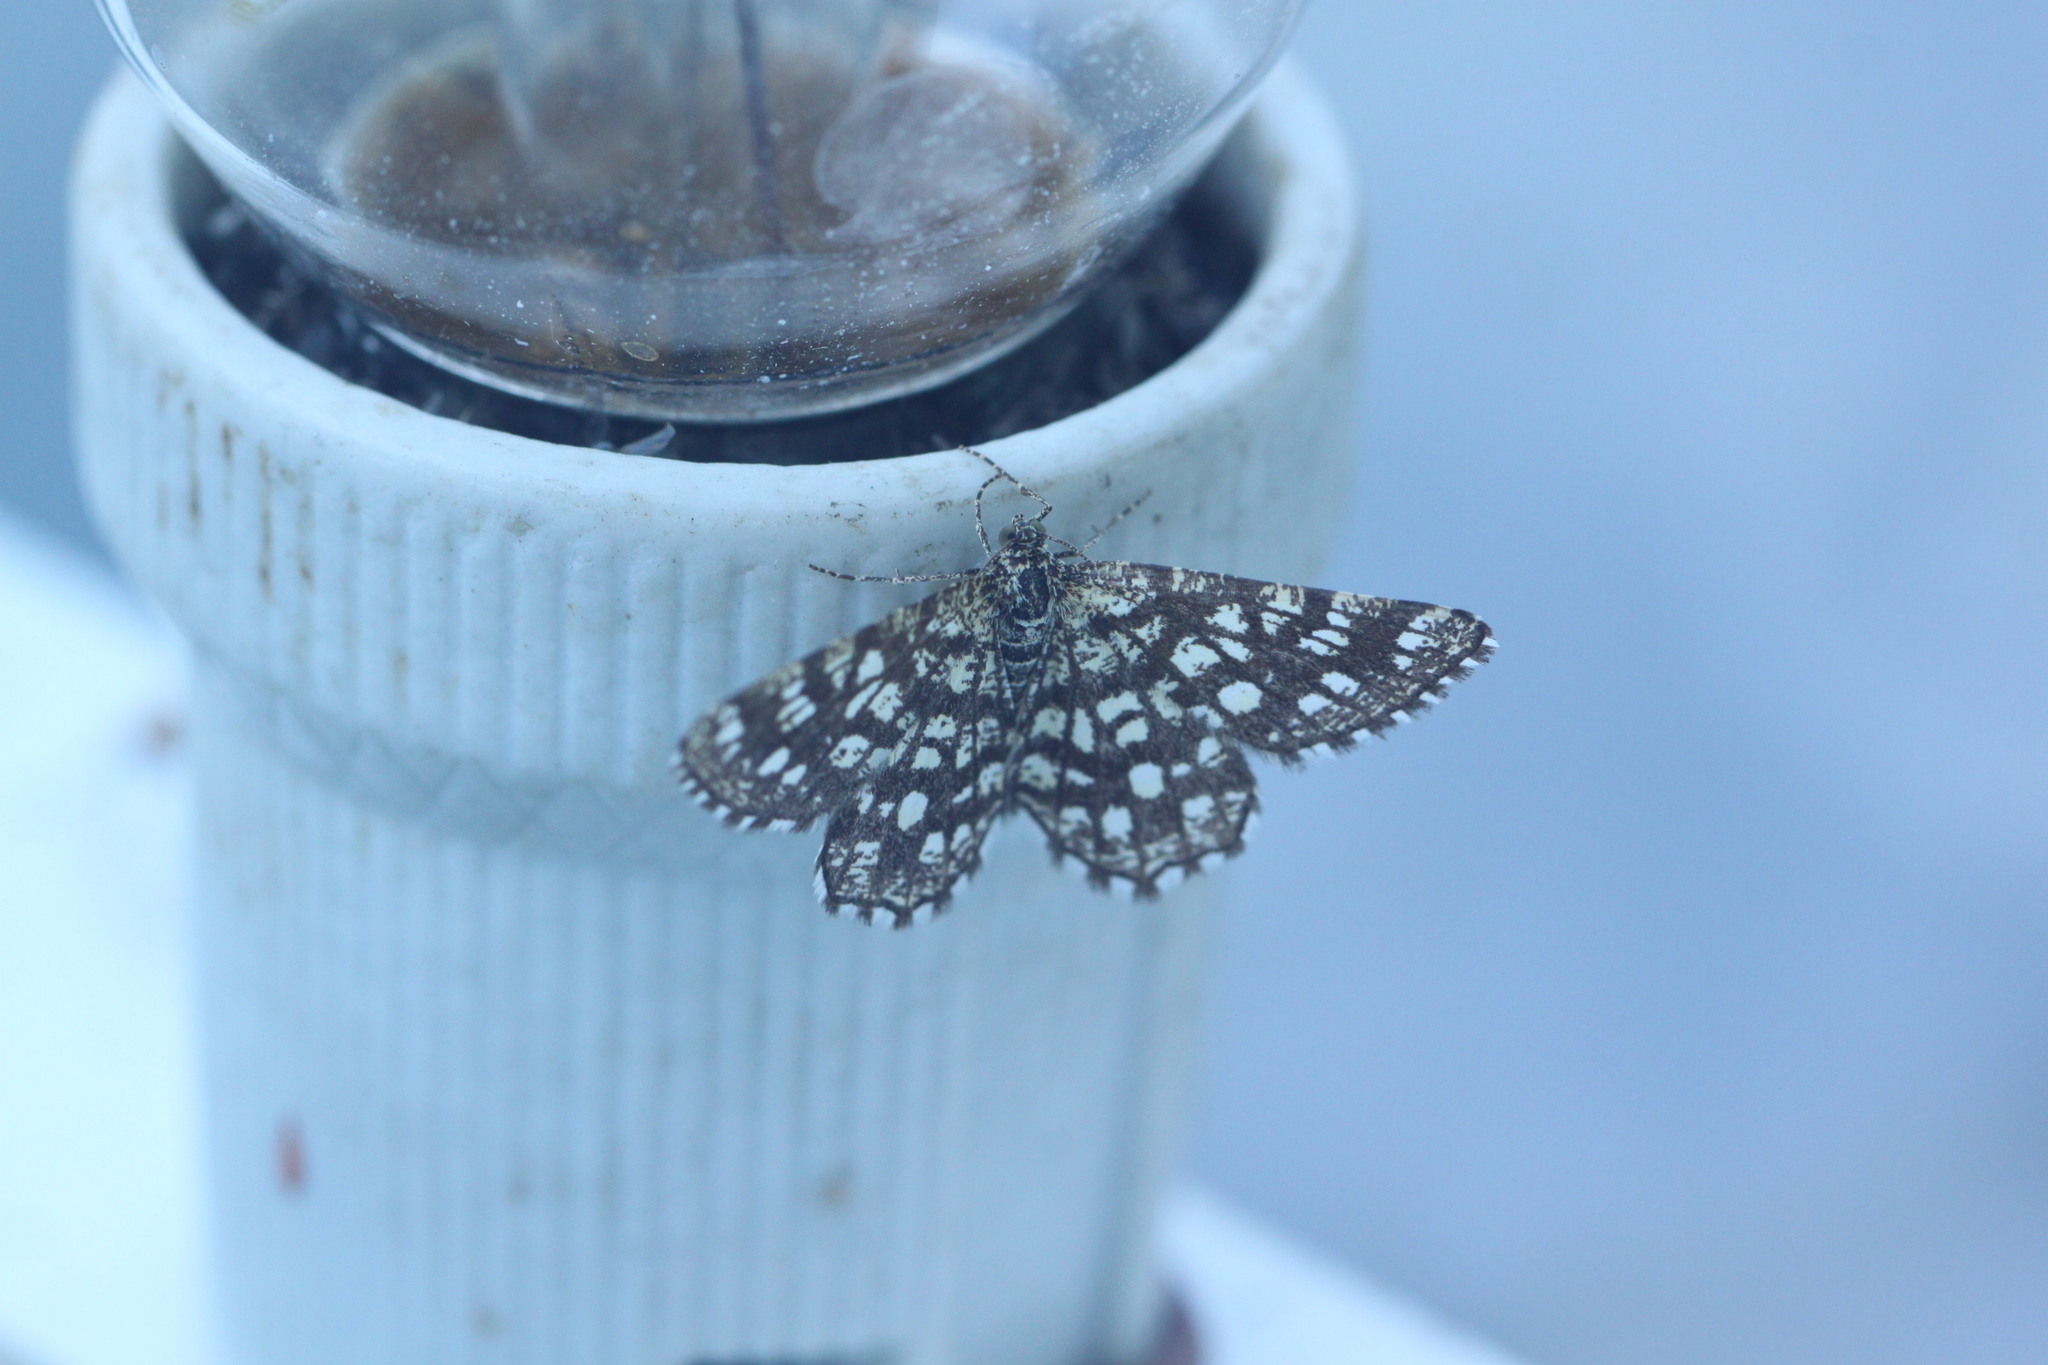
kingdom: Animalia
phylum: Arthropoda
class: Insecta
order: Lepidoptera
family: Geometridae
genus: Chiasmia
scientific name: Chiasmia clathrata
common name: Latticed heath
